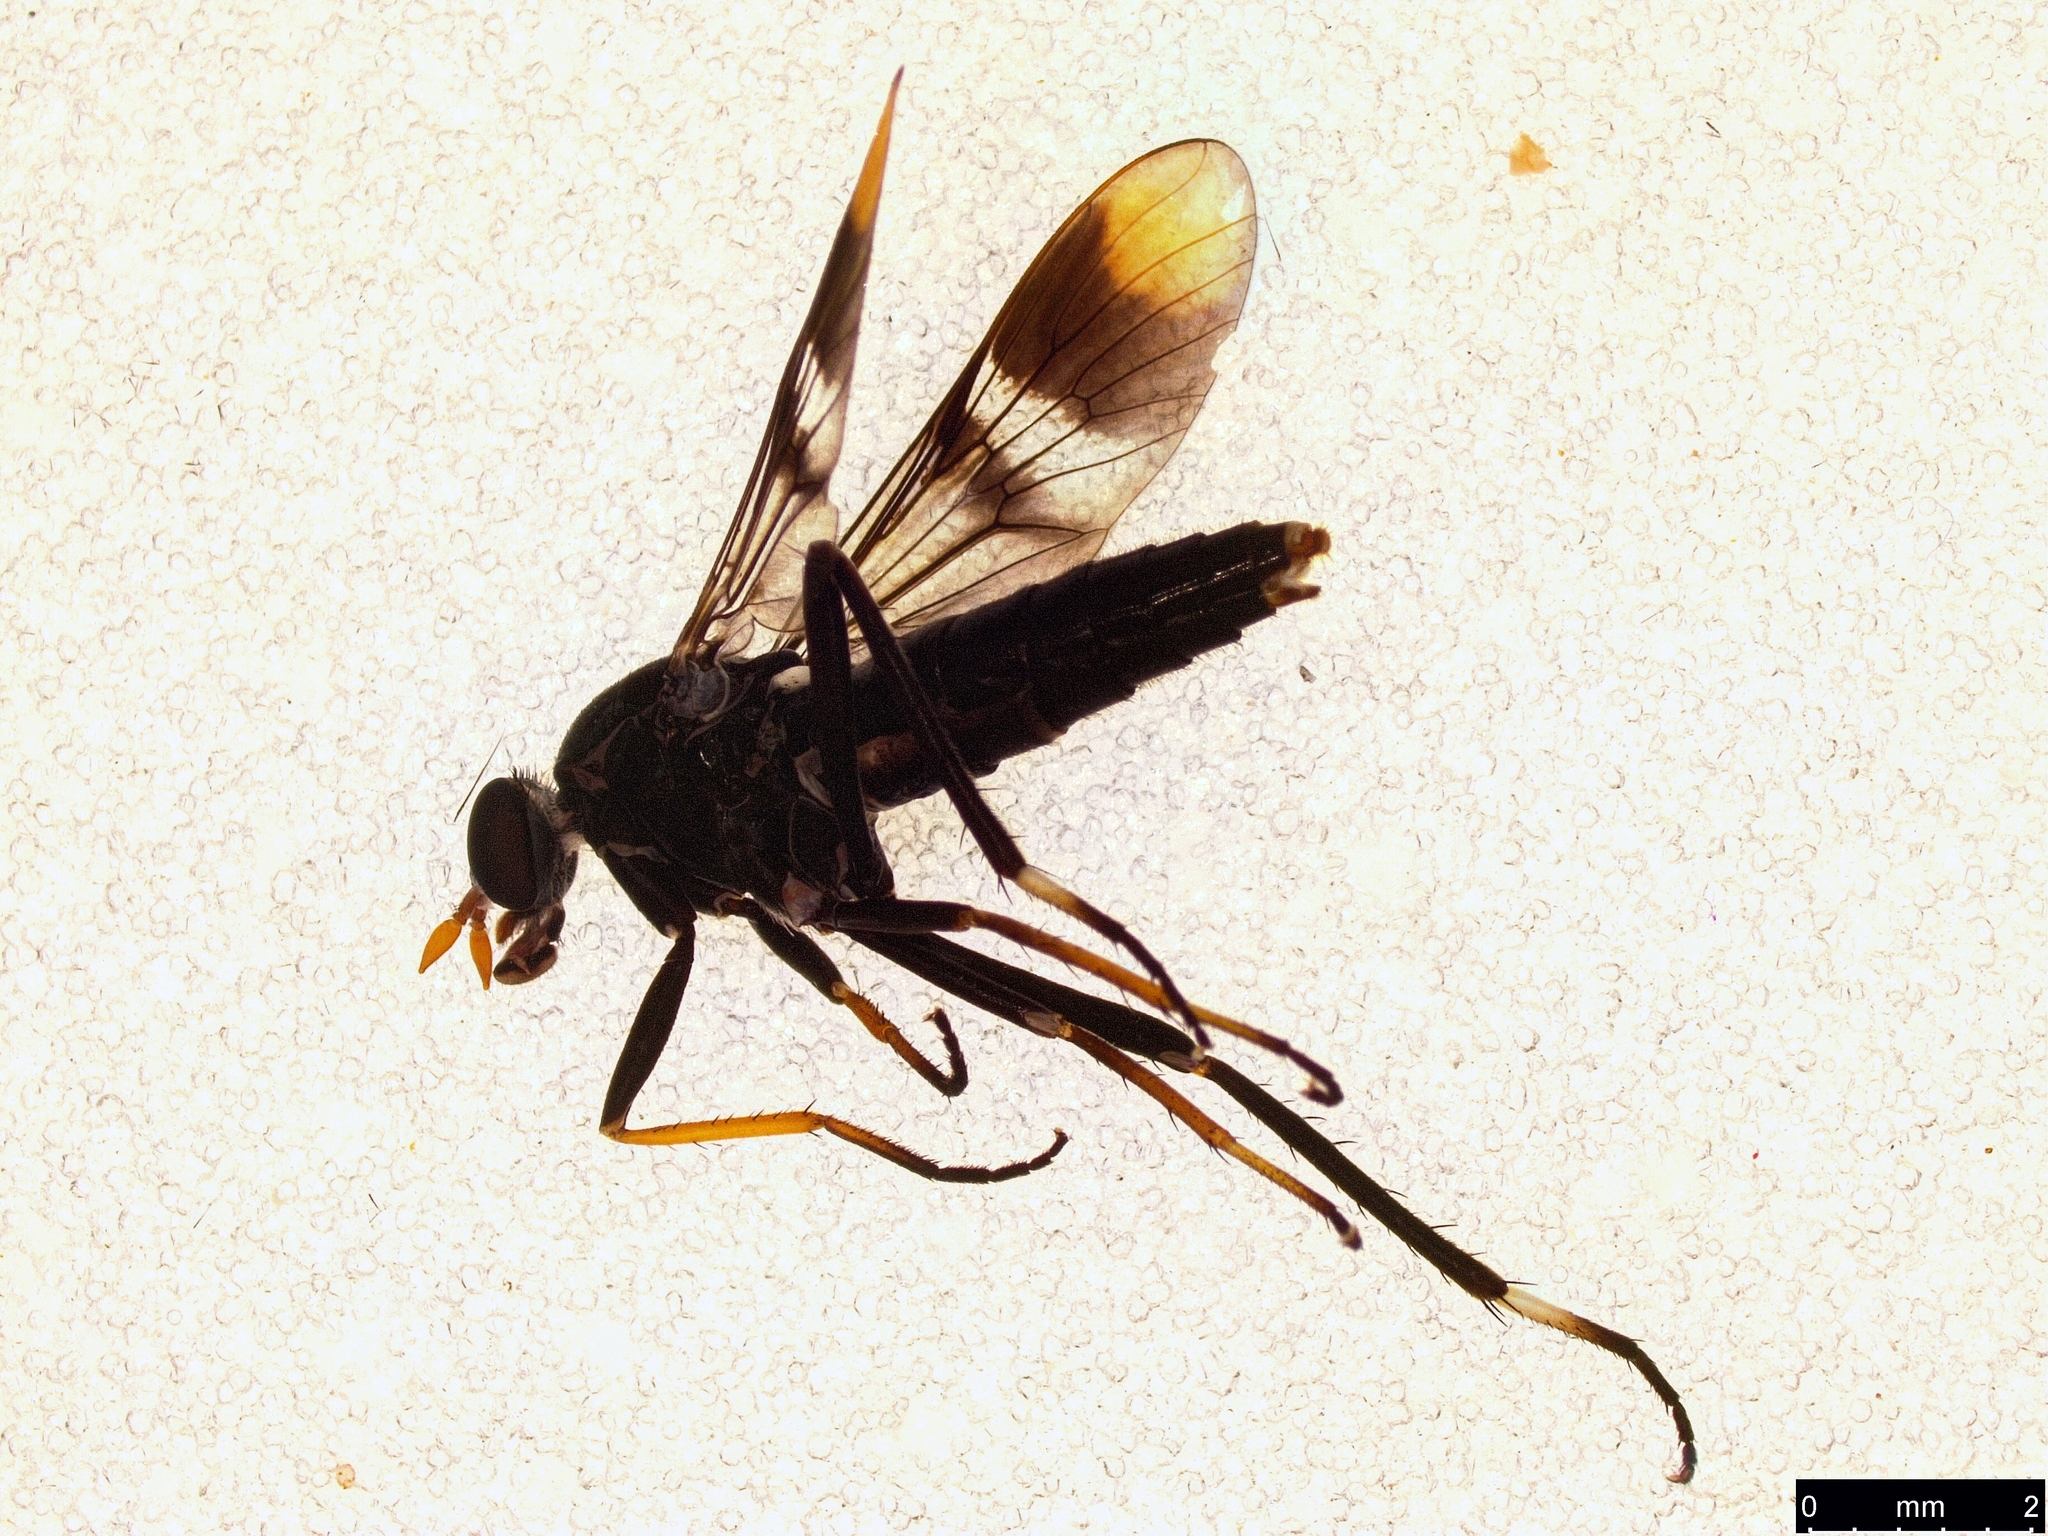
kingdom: Animalia
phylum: Arthropoda
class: Insecta
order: Diptera
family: Therevidae
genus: Ectinorhynchus
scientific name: Ectinorhynchus pyrrhotelus
